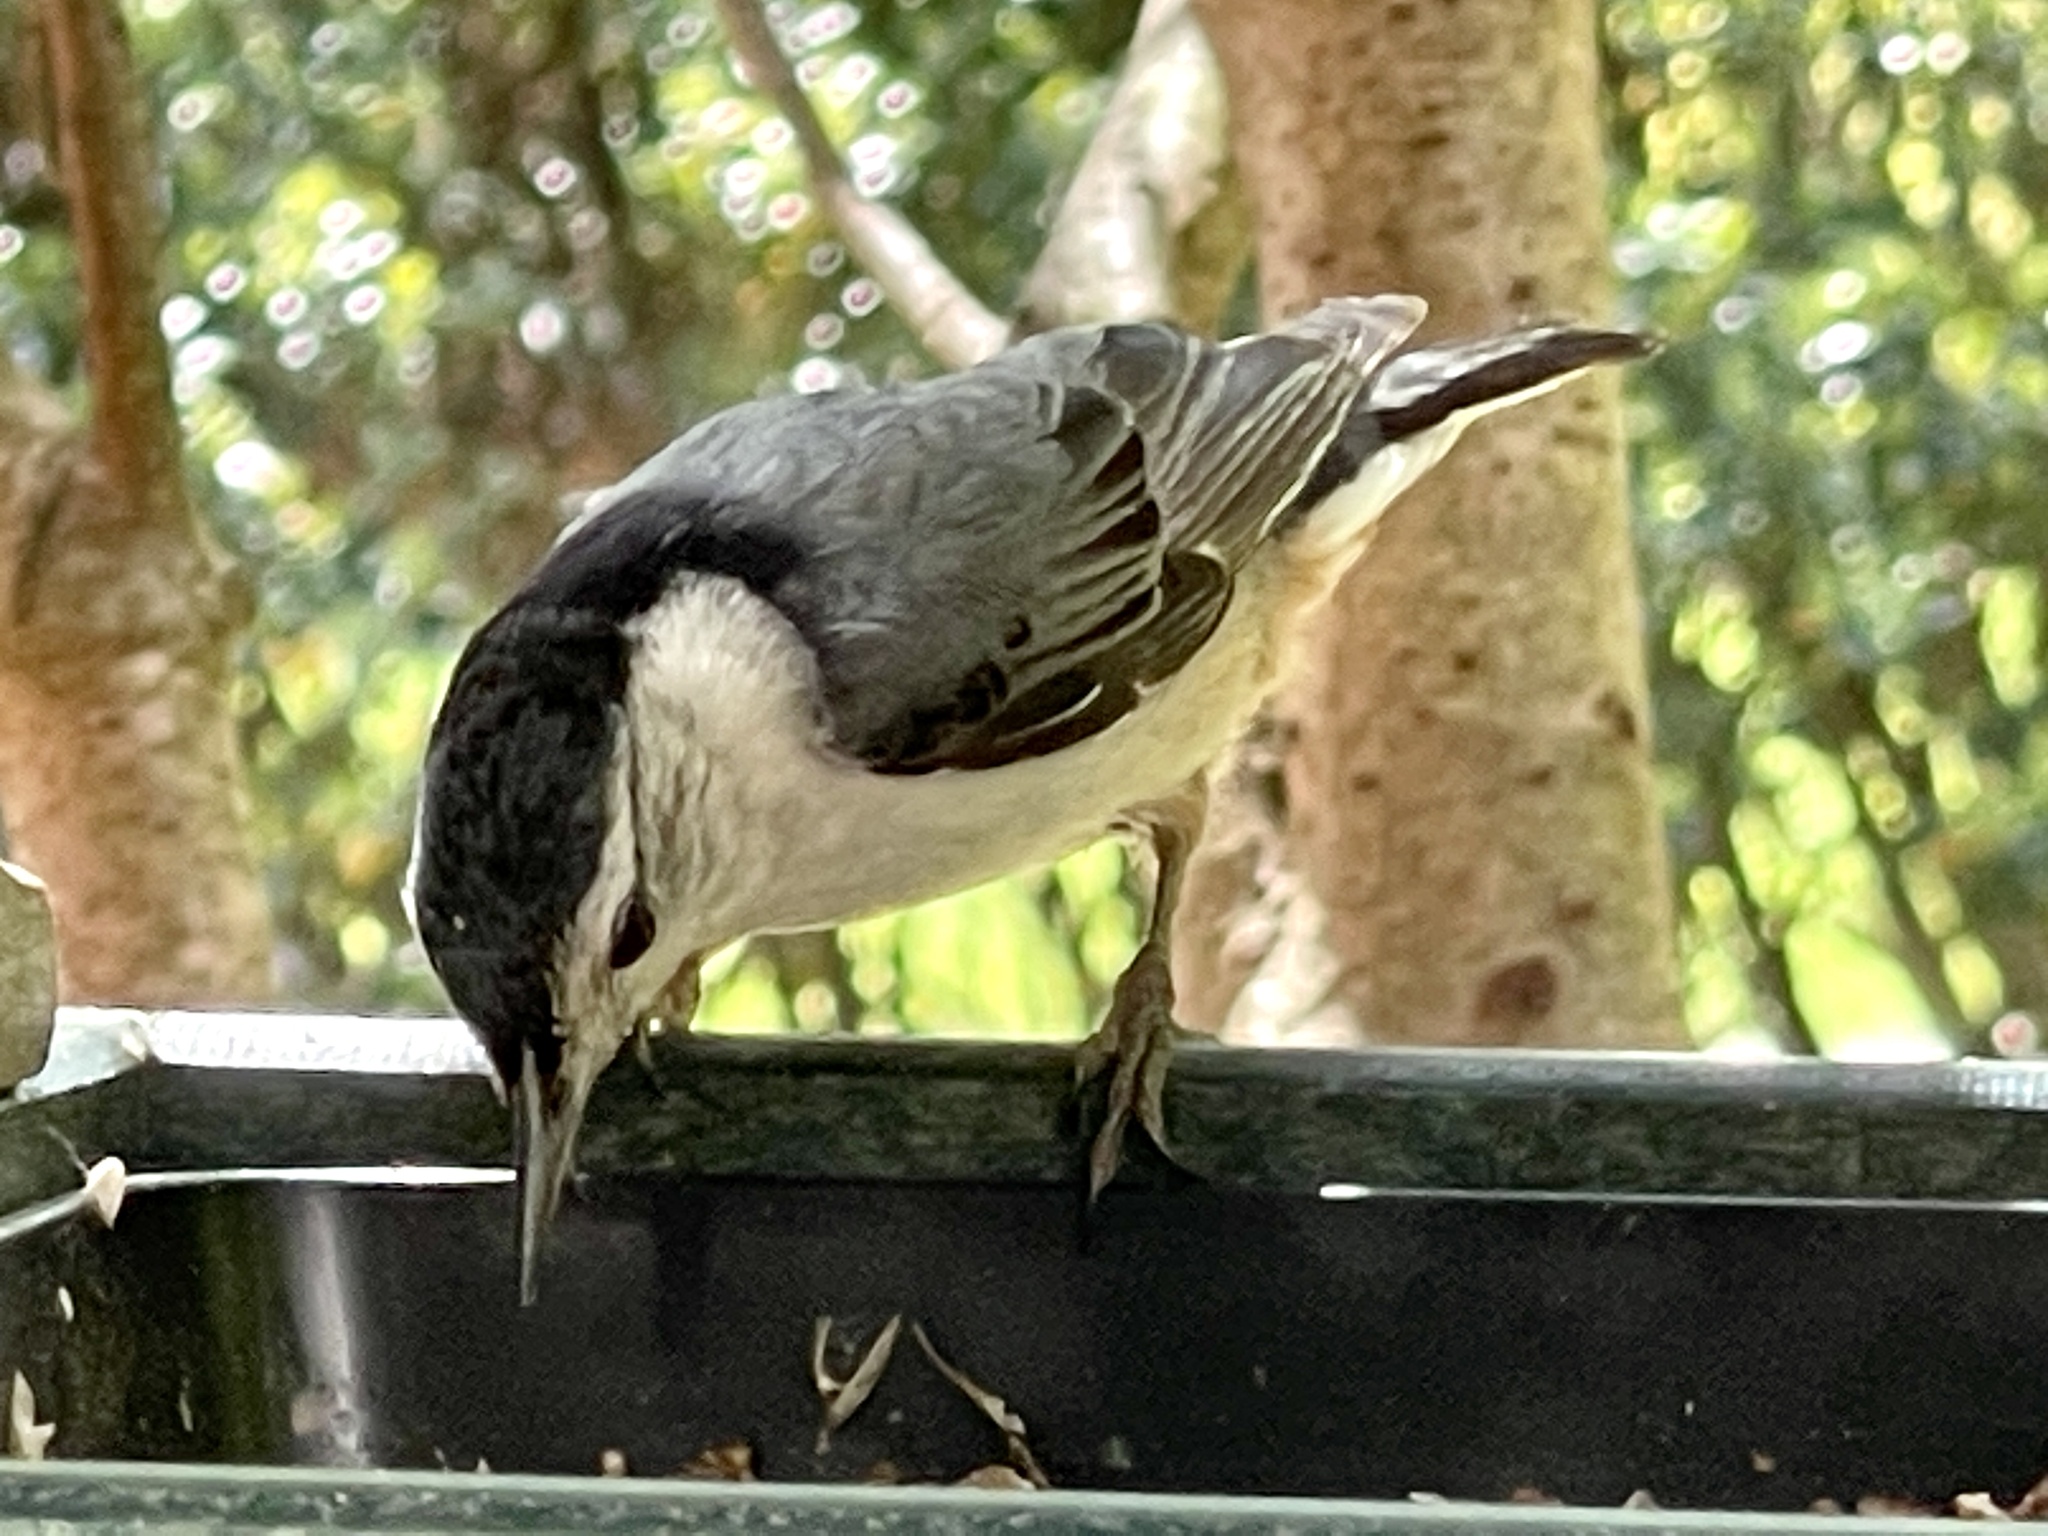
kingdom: Animalia
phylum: Chordata
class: Aves
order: Passeriformes
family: Sittidae
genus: Sitta
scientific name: Sitta carolinensis
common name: White-breasted nuthatch
